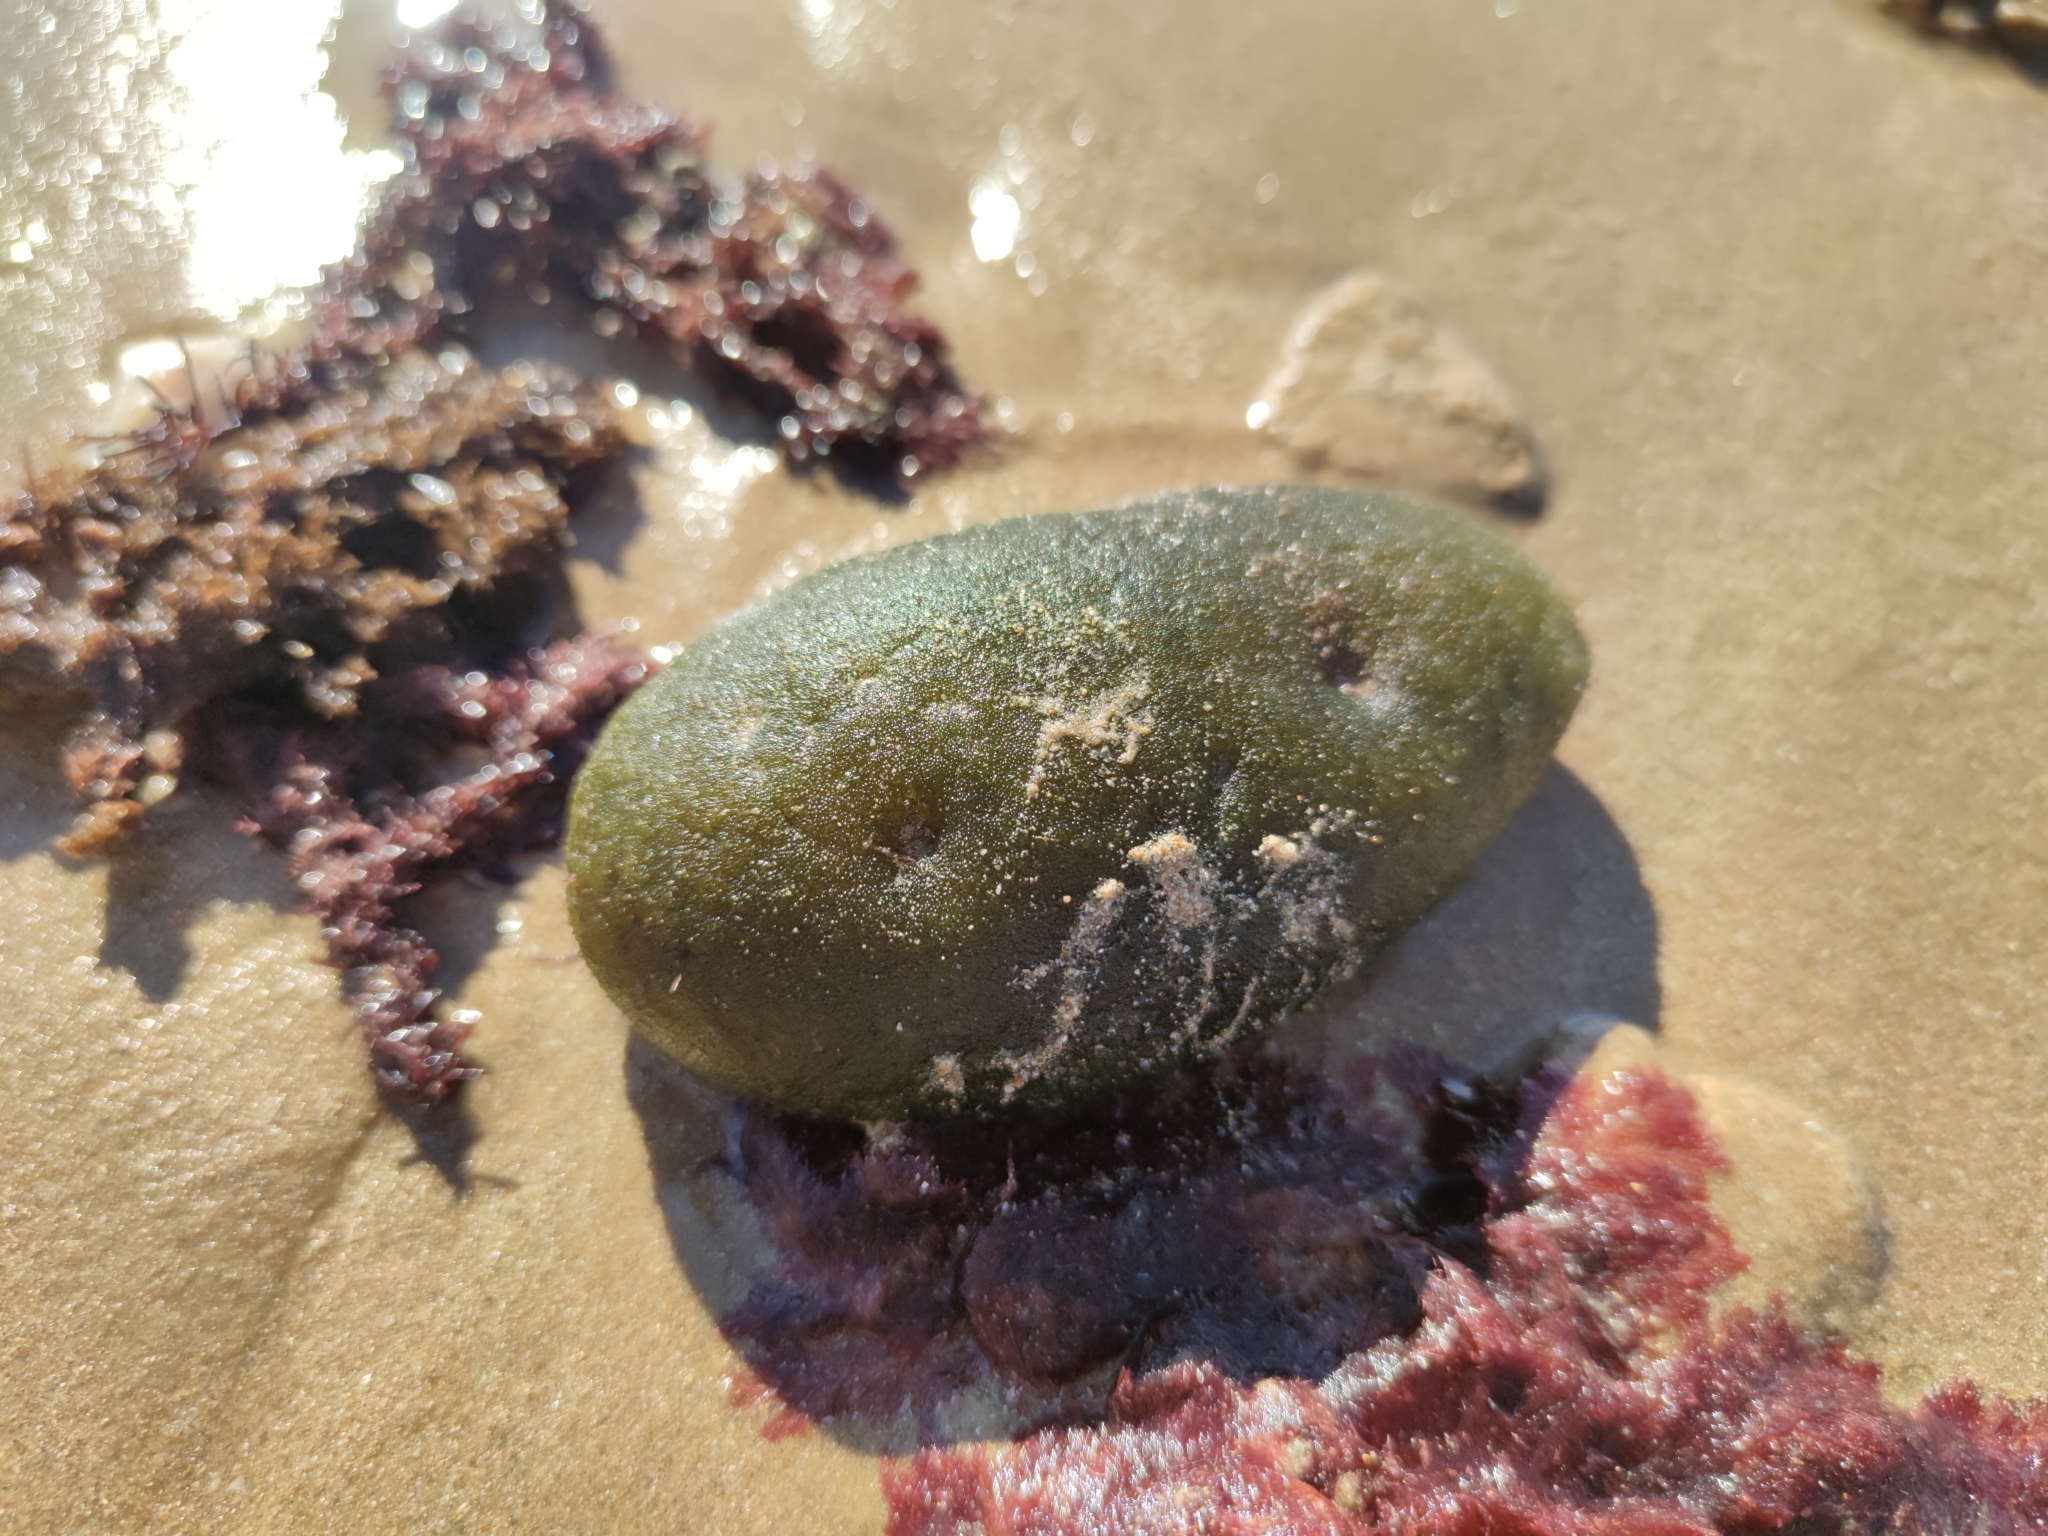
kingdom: Plantae
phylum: Chlorophyta
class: Ulvophyceae
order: Bryopsidales
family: Codiaceae
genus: Codium
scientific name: Codium bursa
